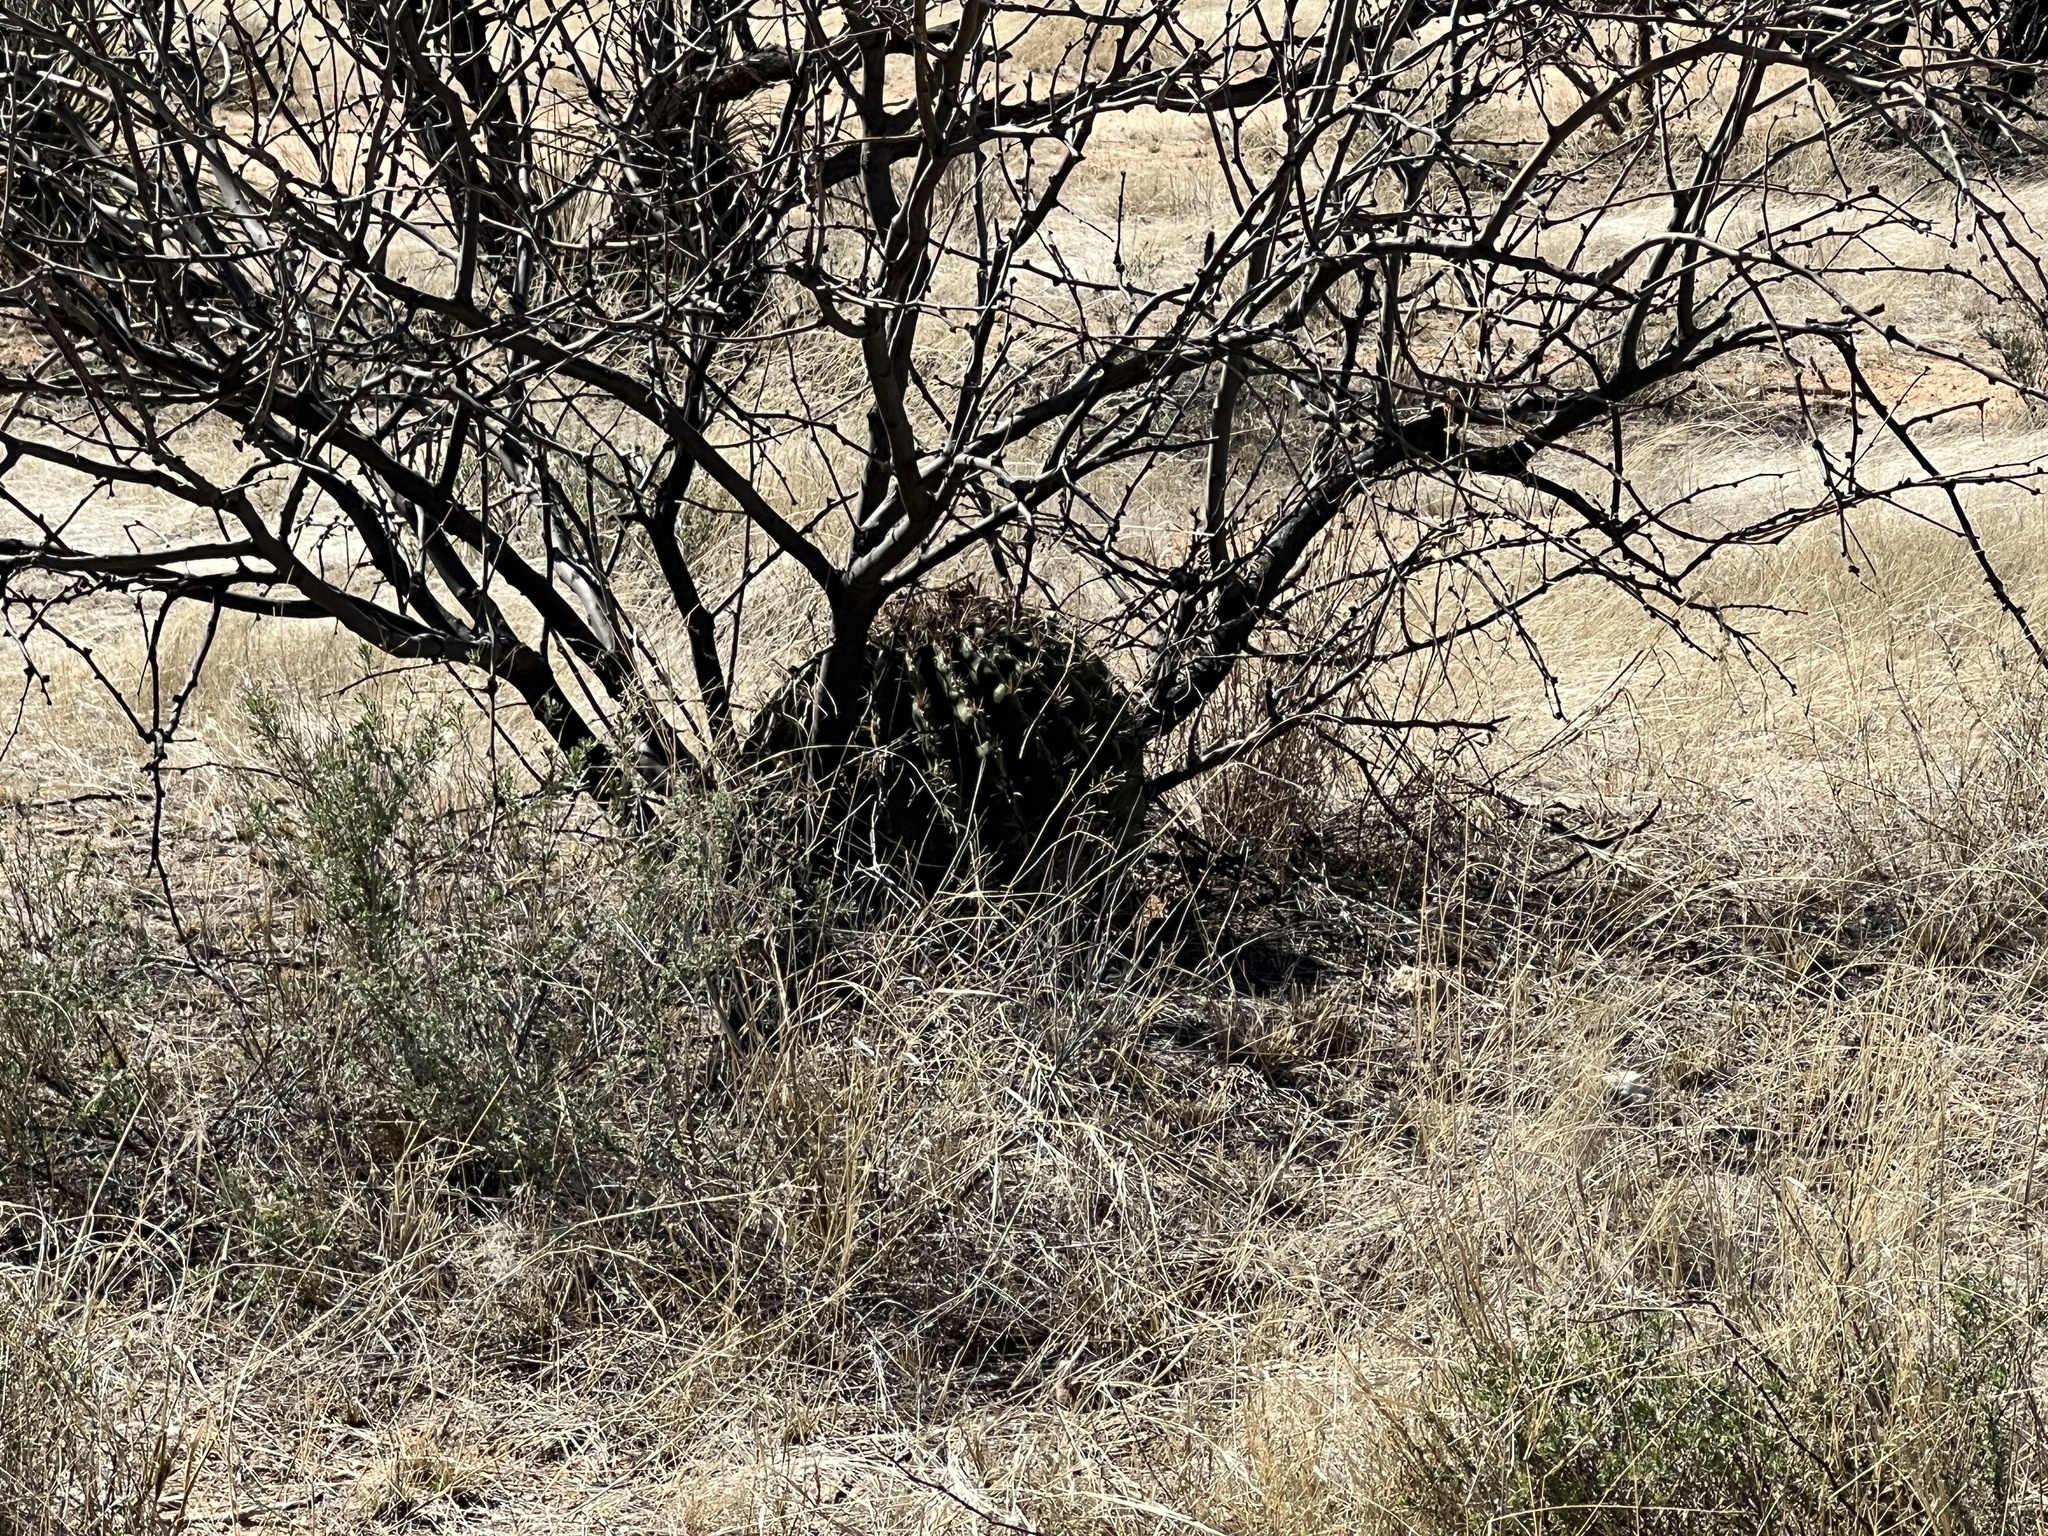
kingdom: Plantae
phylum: Tracheophyta
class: Magnoliopsida
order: Caryophyllales
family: Cactaceae
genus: Ferocactus
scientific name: Ferocactus wislizeni
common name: Candy barrel cactus
